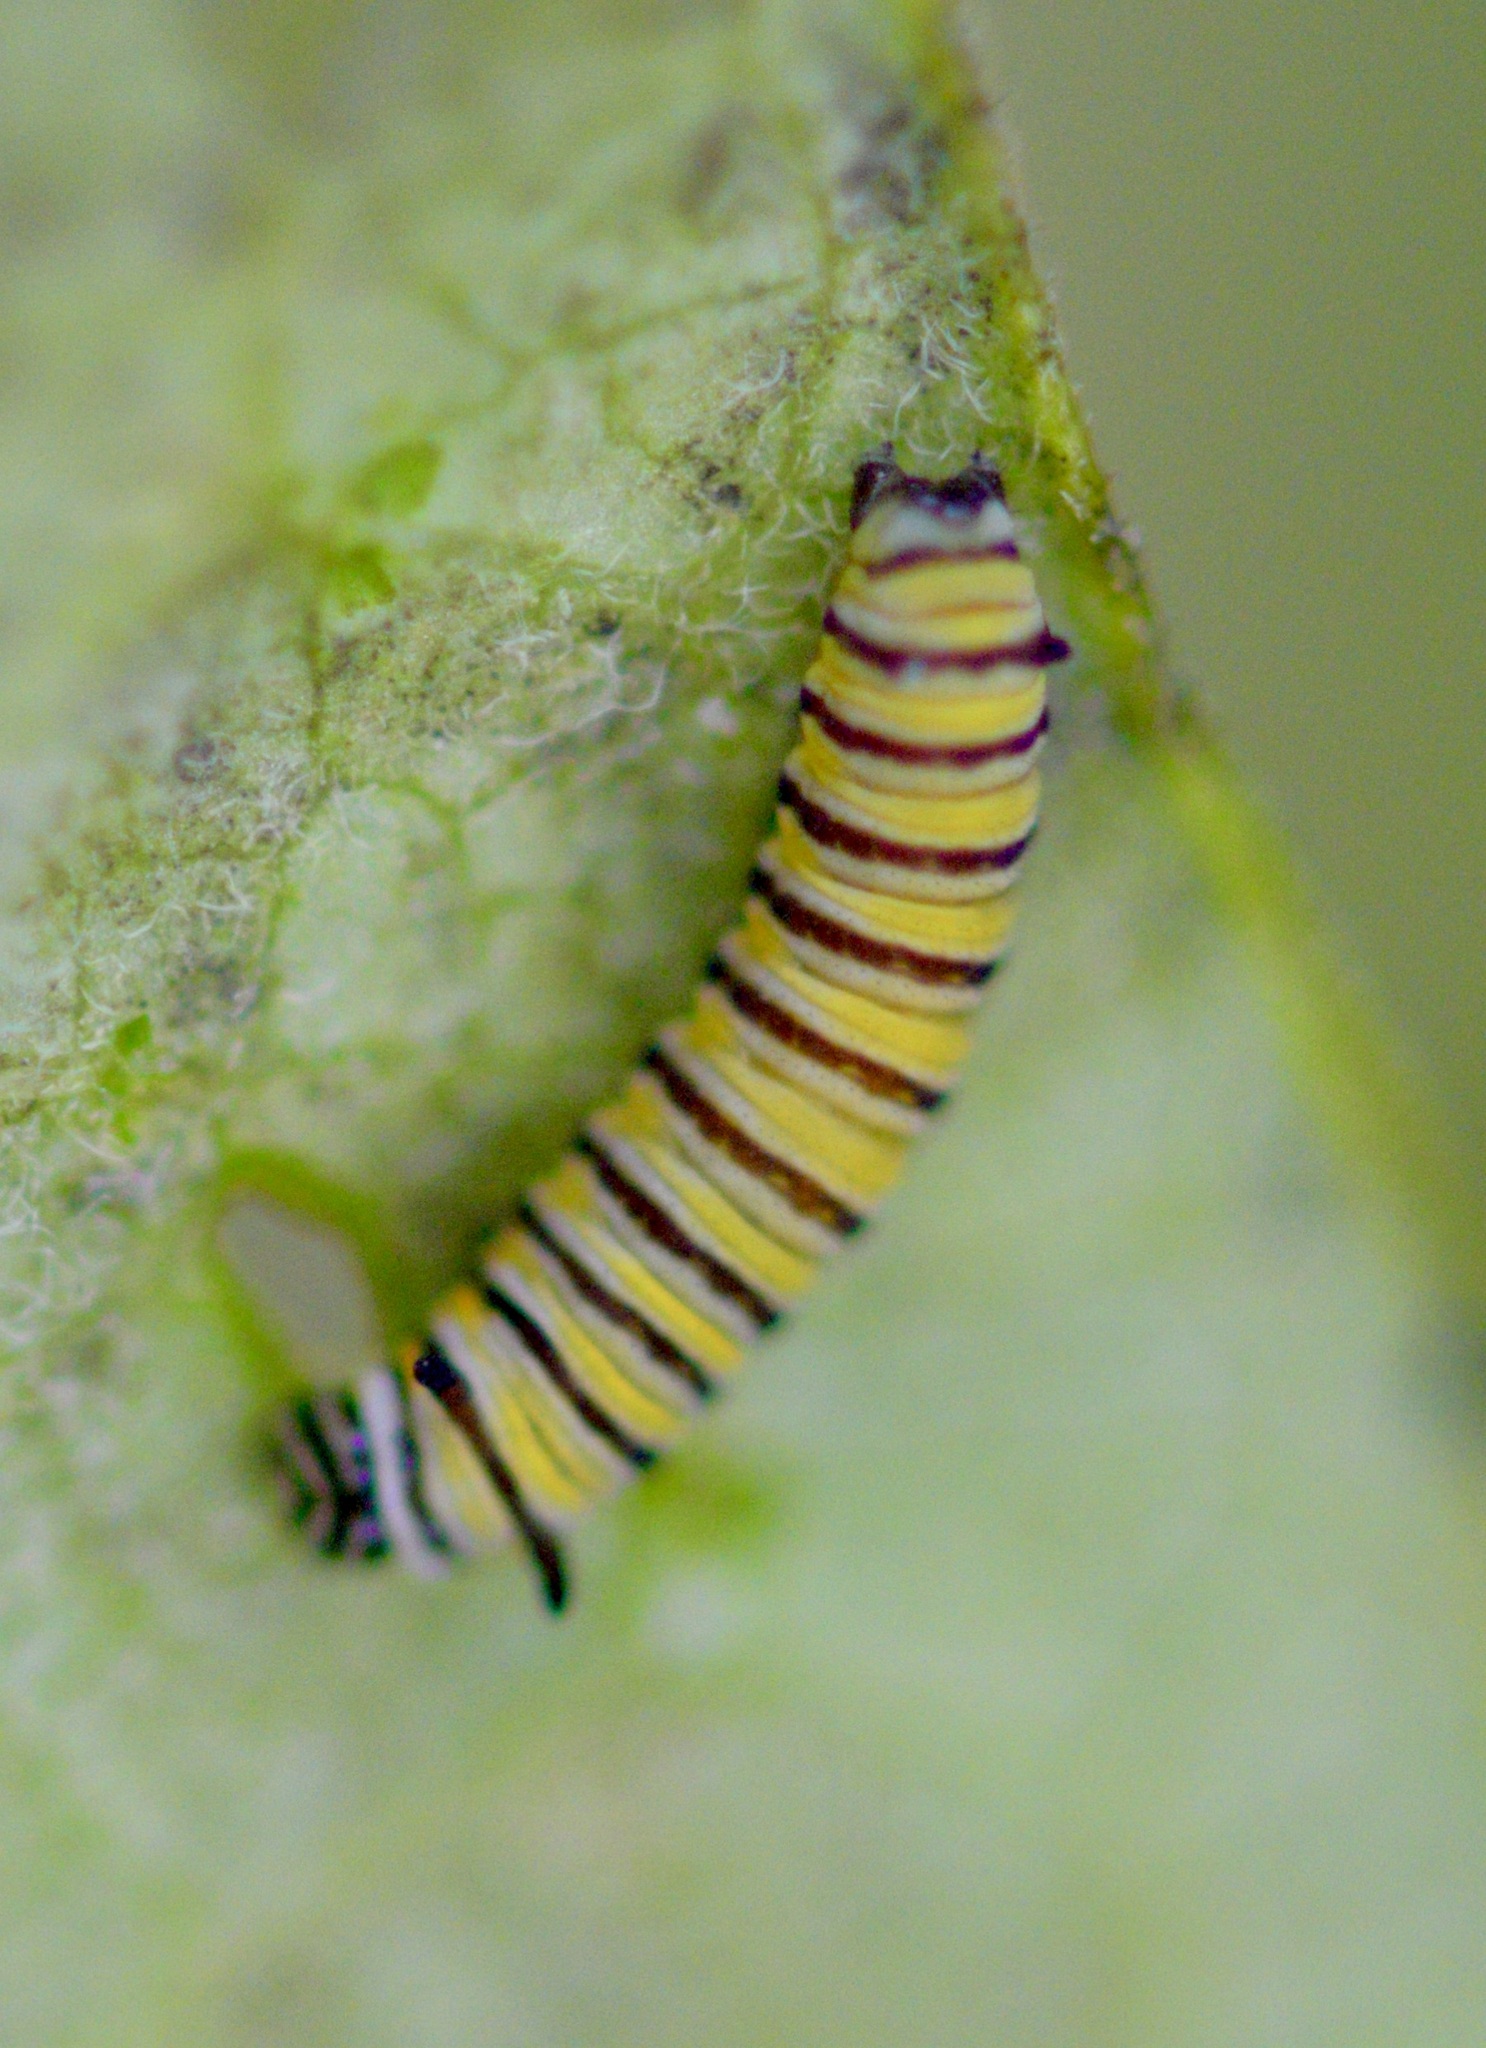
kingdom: Animalia
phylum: Arthropoda
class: Insecta
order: Lepidoptera
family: Nymphalidae
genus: Danaus
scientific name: Danaus plexippus
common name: Monarch
